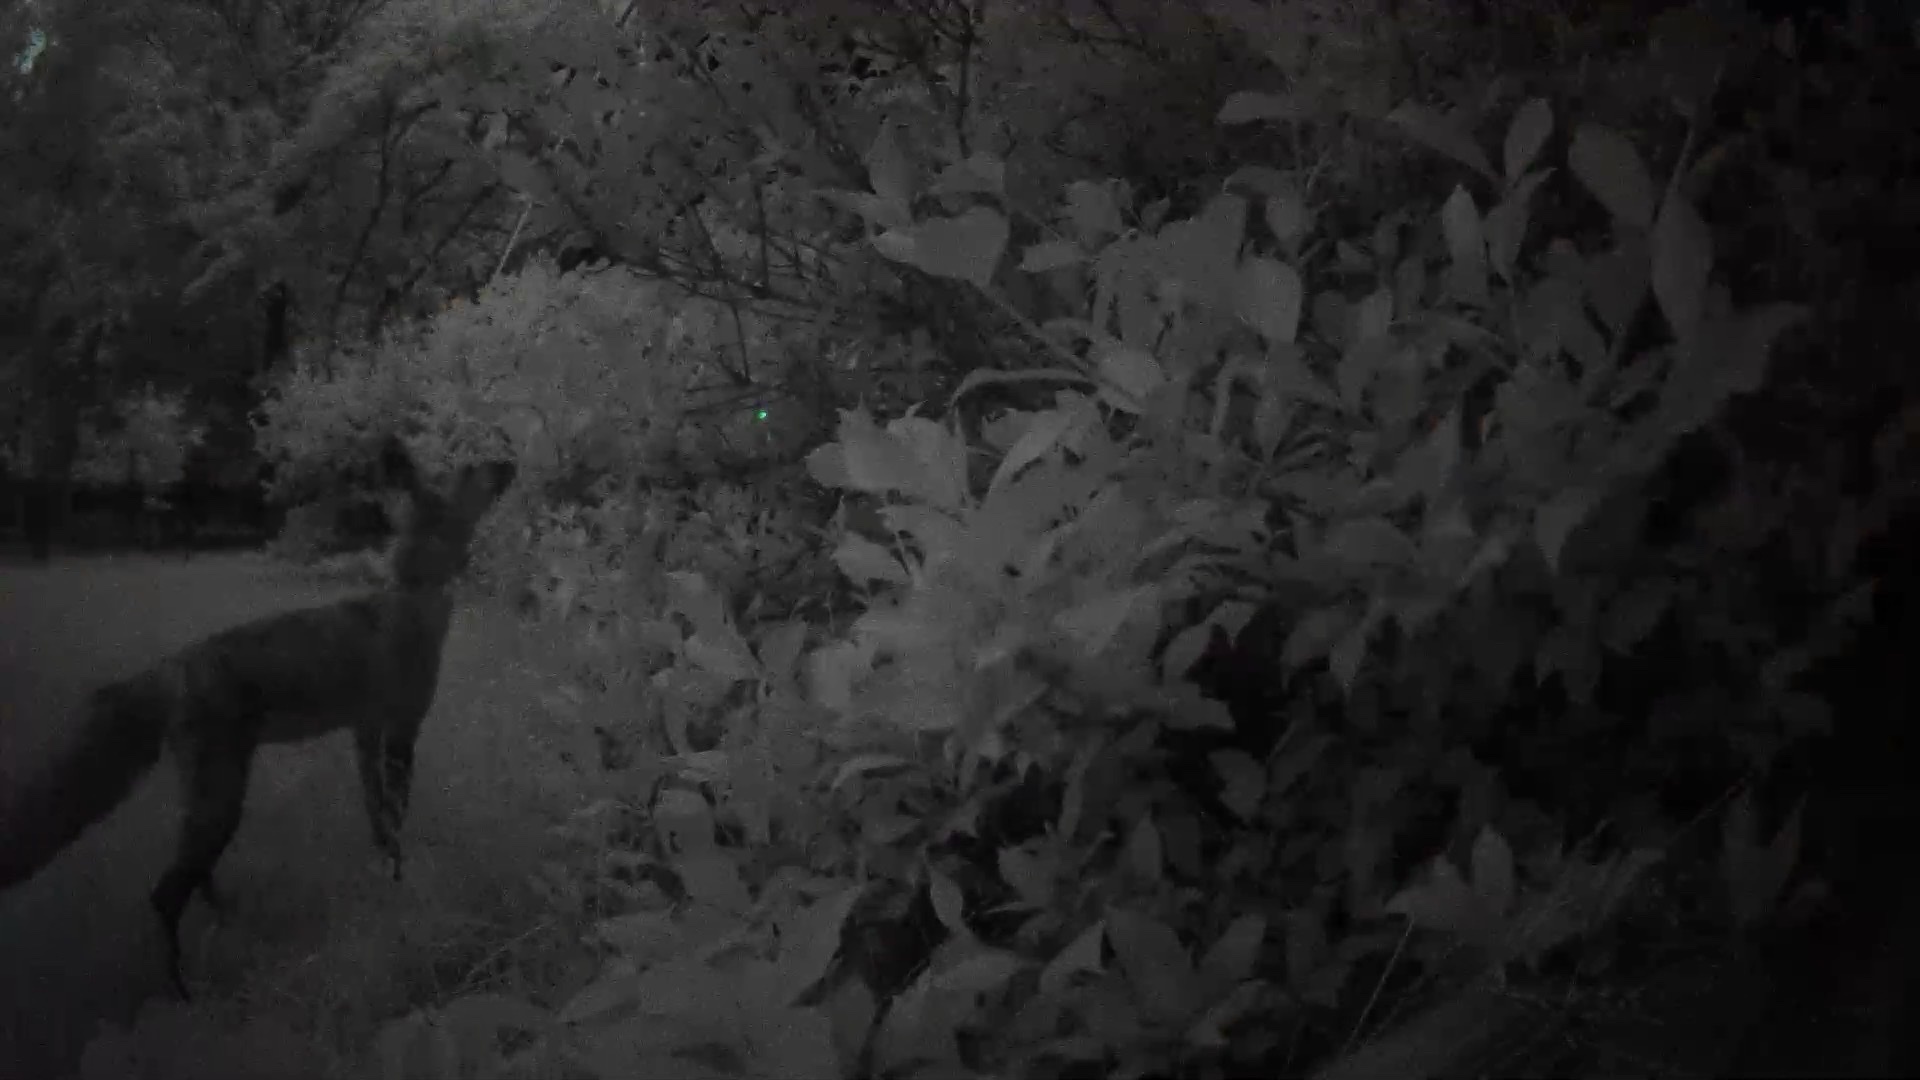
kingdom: Animalia
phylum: Chordata
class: Mammalia
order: Carnivora
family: Canidae
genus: Vulpes
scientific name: Vulpes vulpes
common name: Red fox
